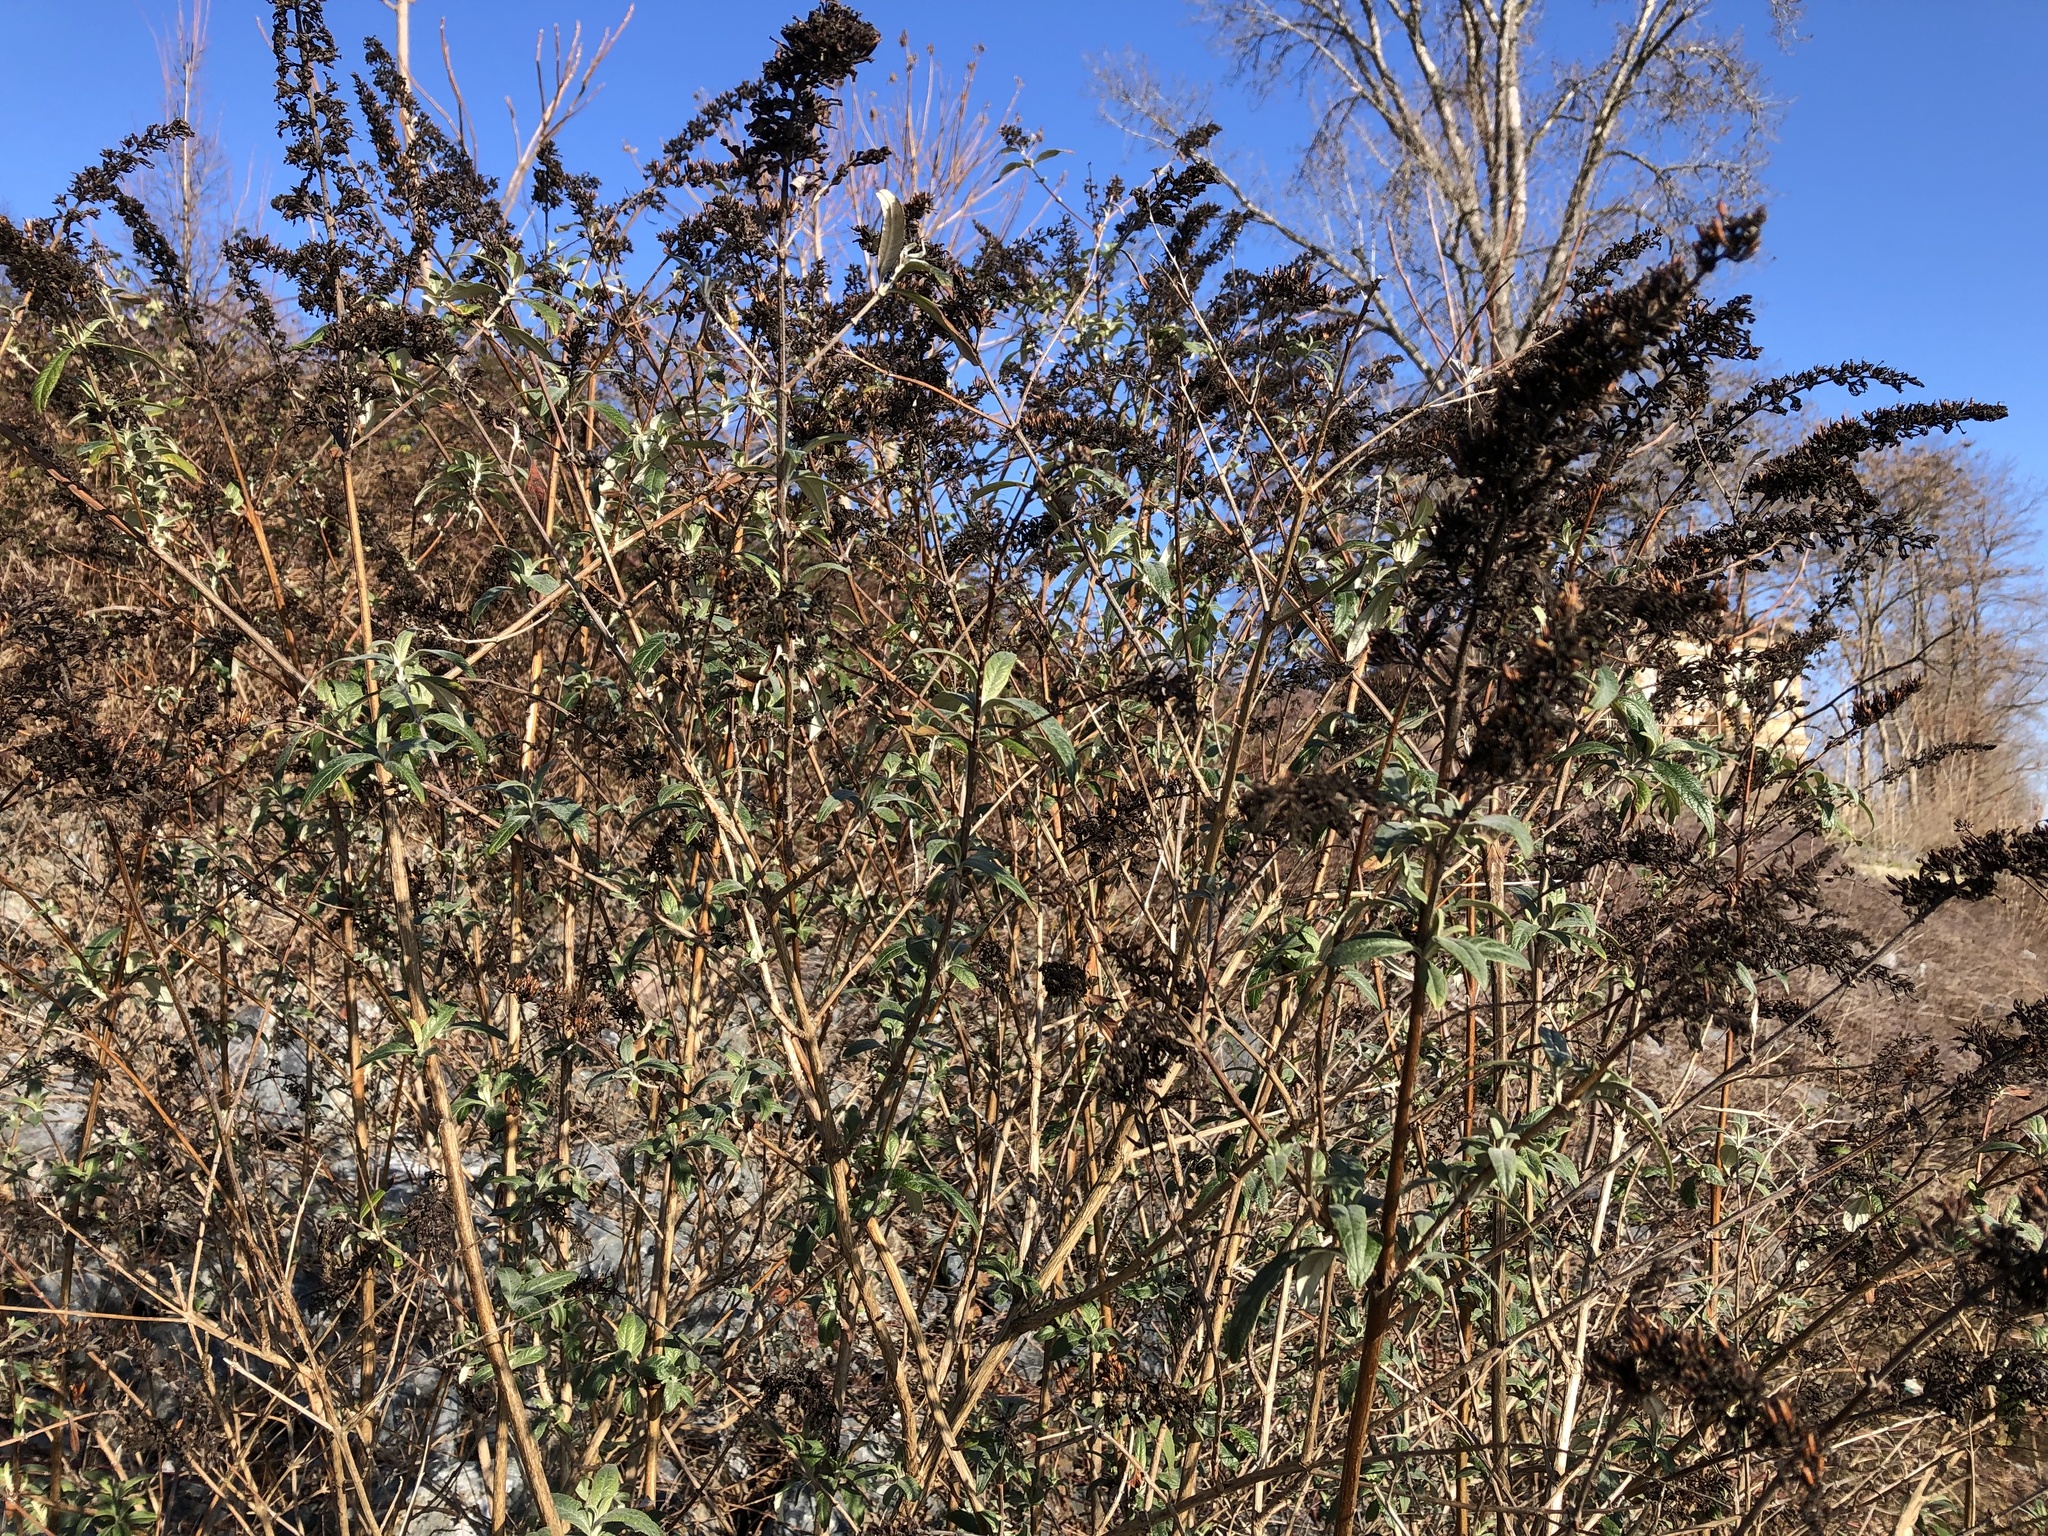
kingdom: Plantae
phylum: Tracheophyta
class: Magnoliopsida
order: Lamiales
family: Scrophulariaceae
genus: Buddleja
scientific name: Buddleja davidii
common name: Butterfly-bush
